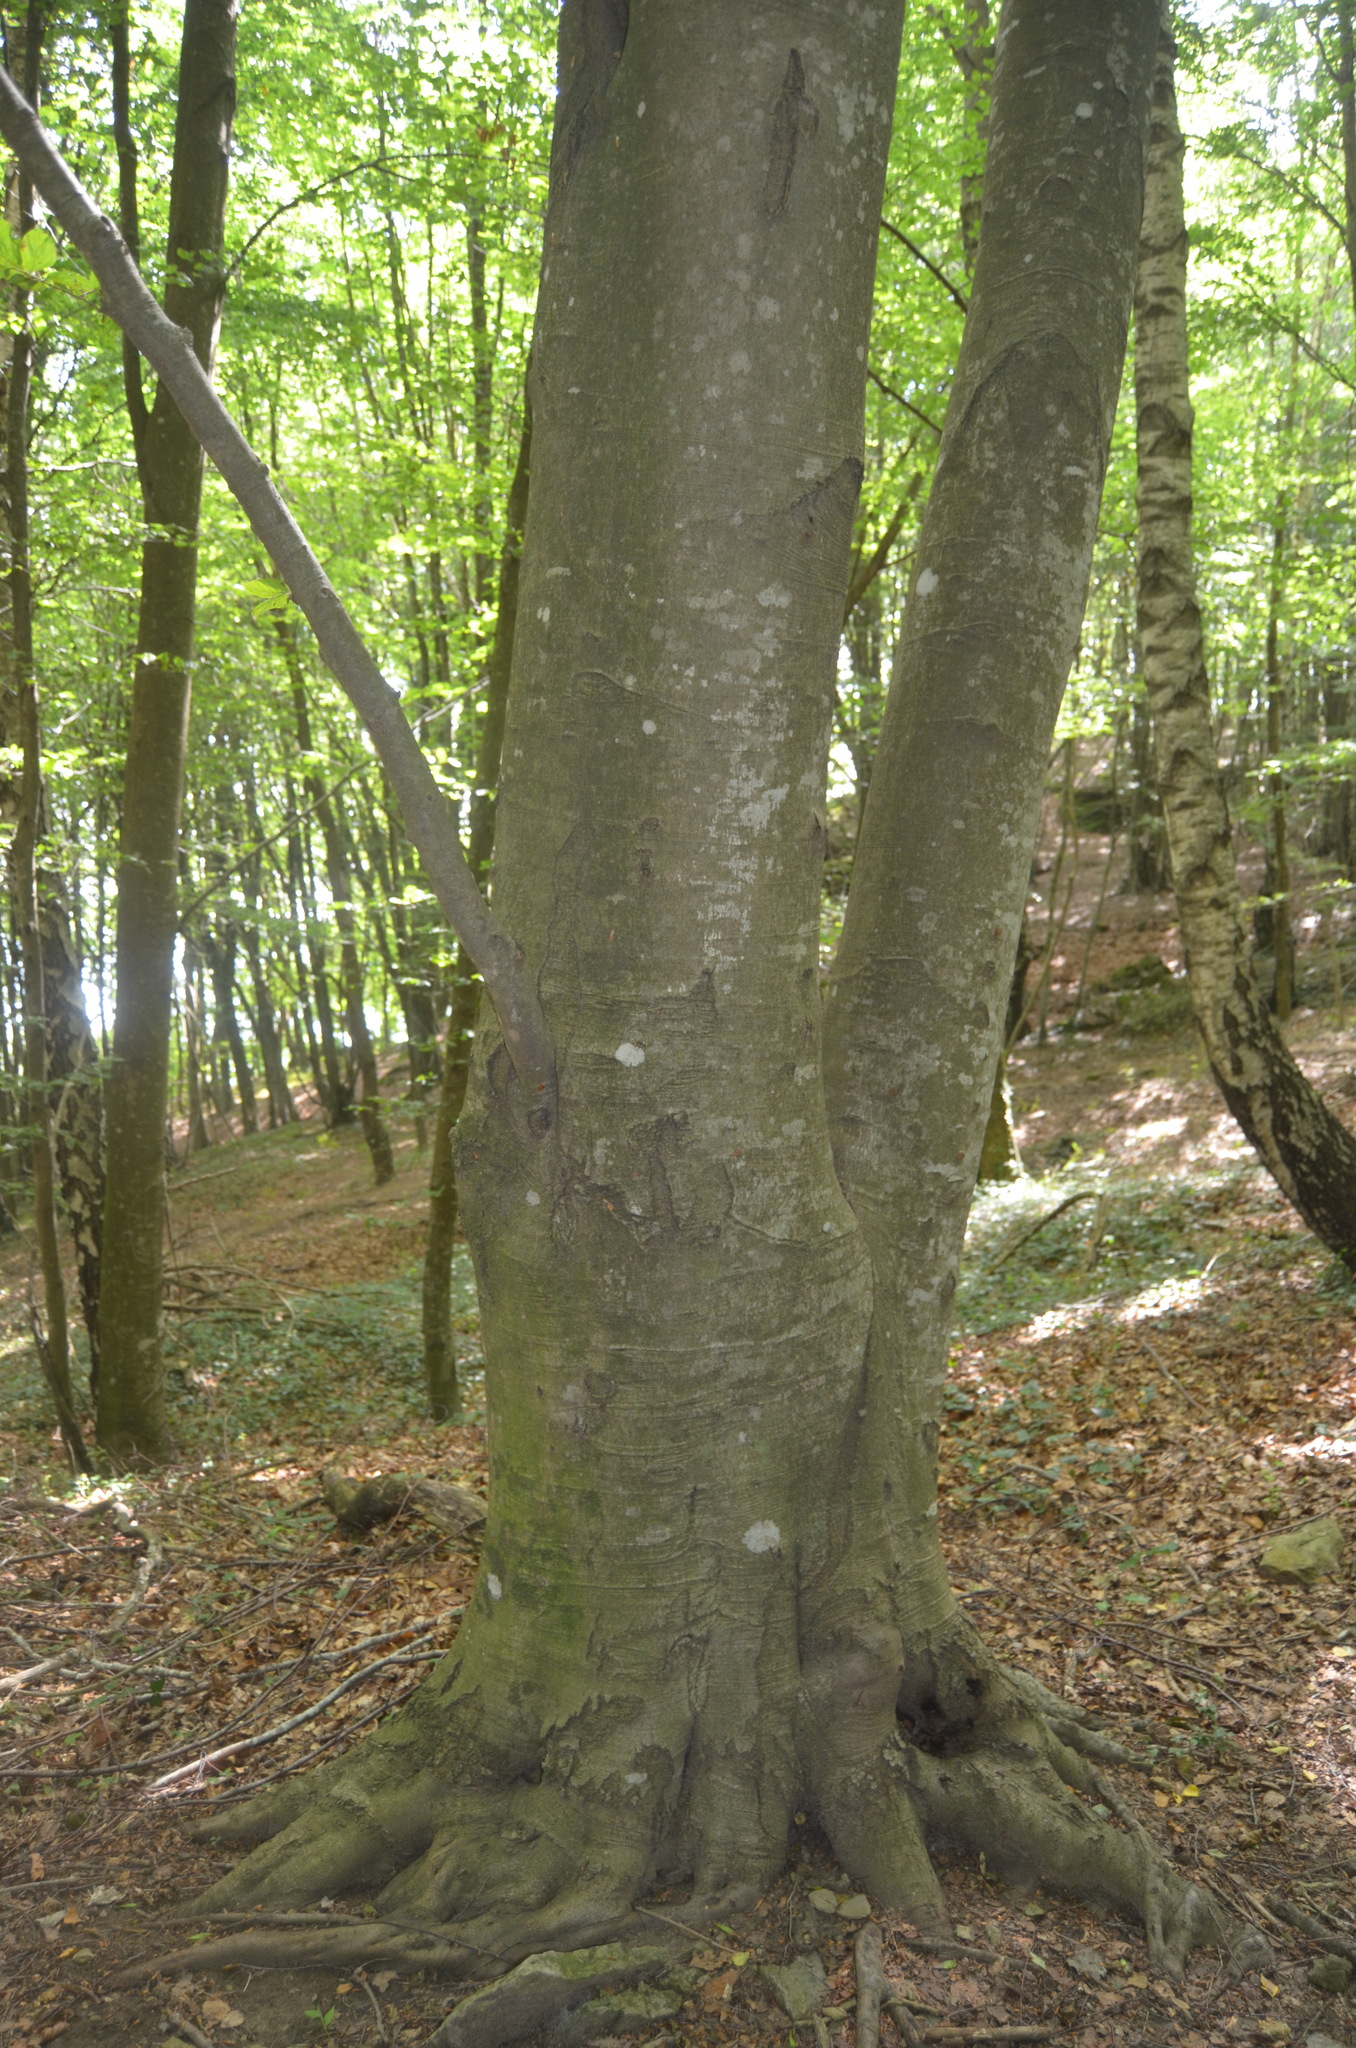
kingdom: Plantae
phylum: Tracheophyta
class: Magnoliopsida
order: Fagales
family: Fagaceae
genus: Fagus
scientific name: Fagus sylvatica
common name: Beech
